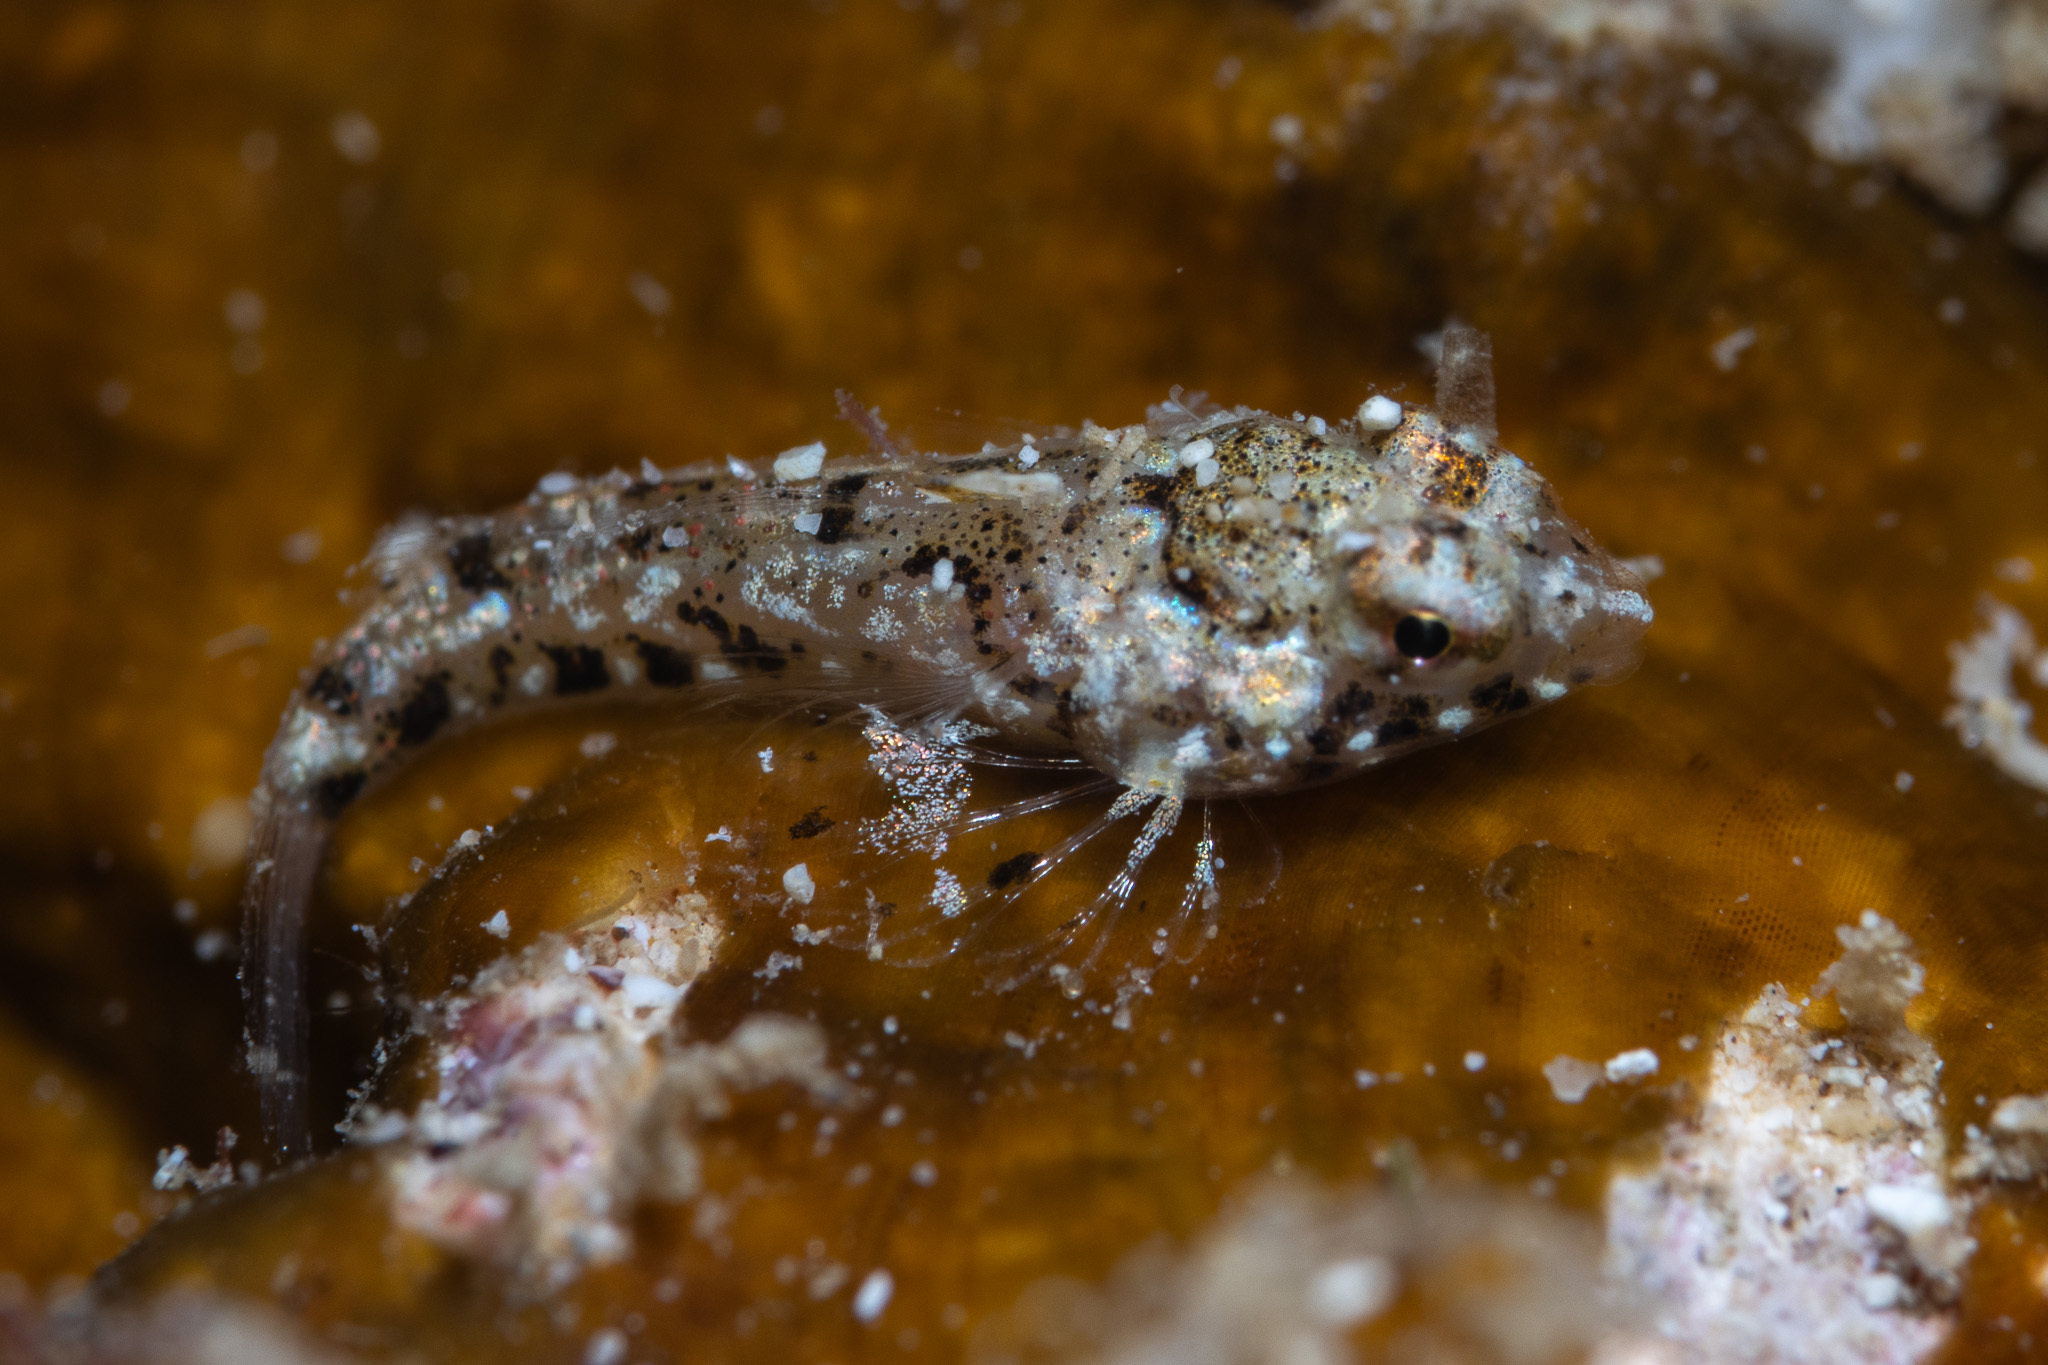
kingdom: Animalia
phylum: Chordata
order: Perciformes
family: Callionymidae
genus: Synchiropus
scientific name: Synchiropus rosulentus
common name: Hawaiian flagfin dragonet
